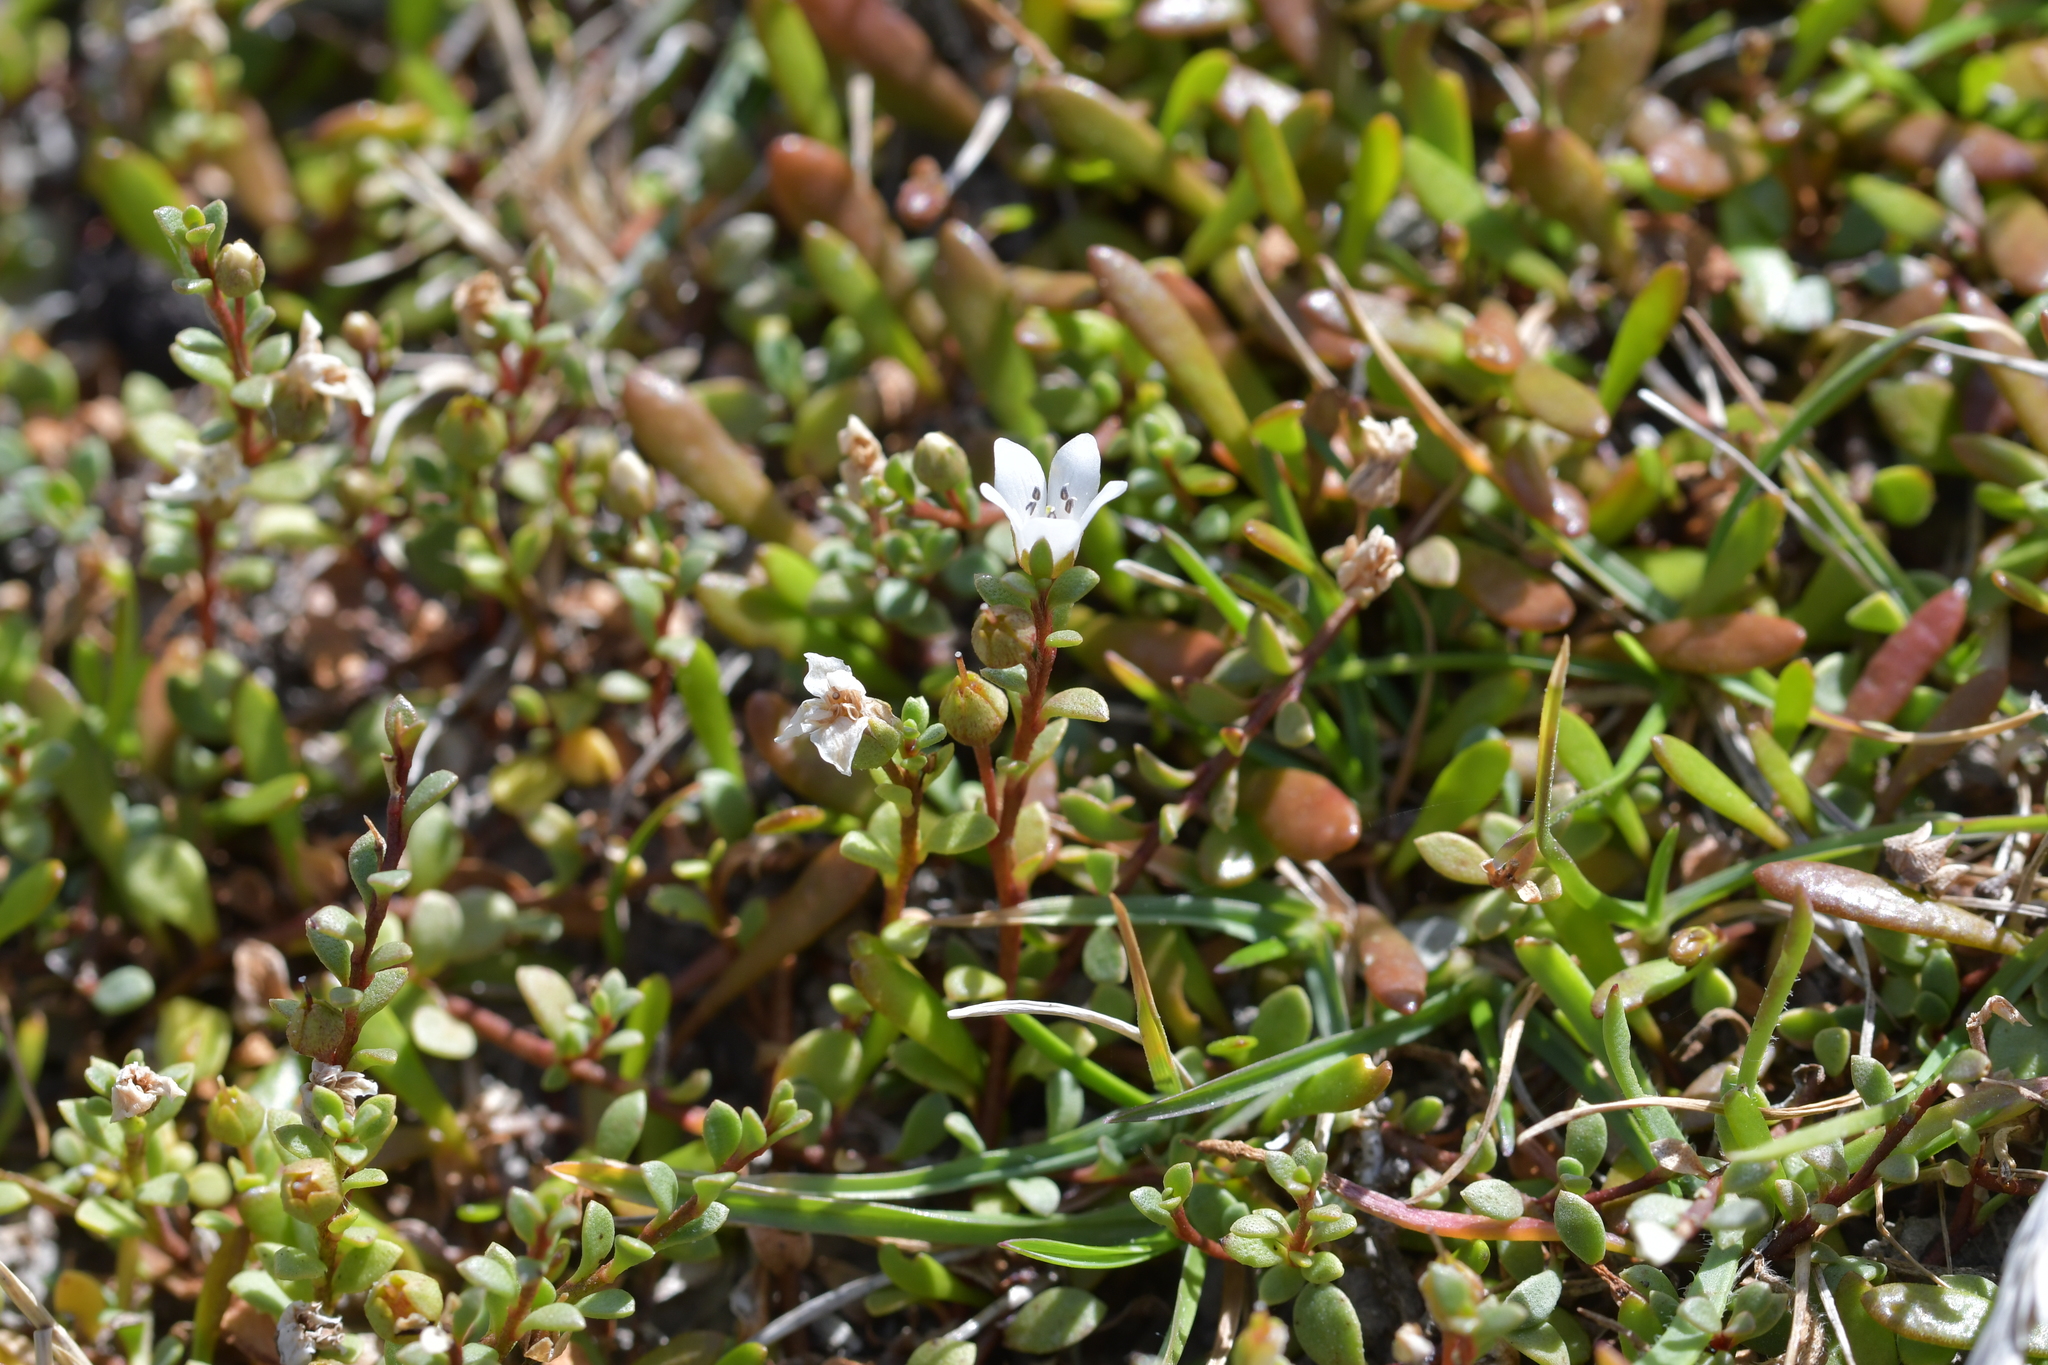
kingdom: Plantae
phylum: Tracheophyta
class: Magnoliopsida
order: Ericales
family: Primulaceae
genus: Samolus
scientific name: Samolus repens
